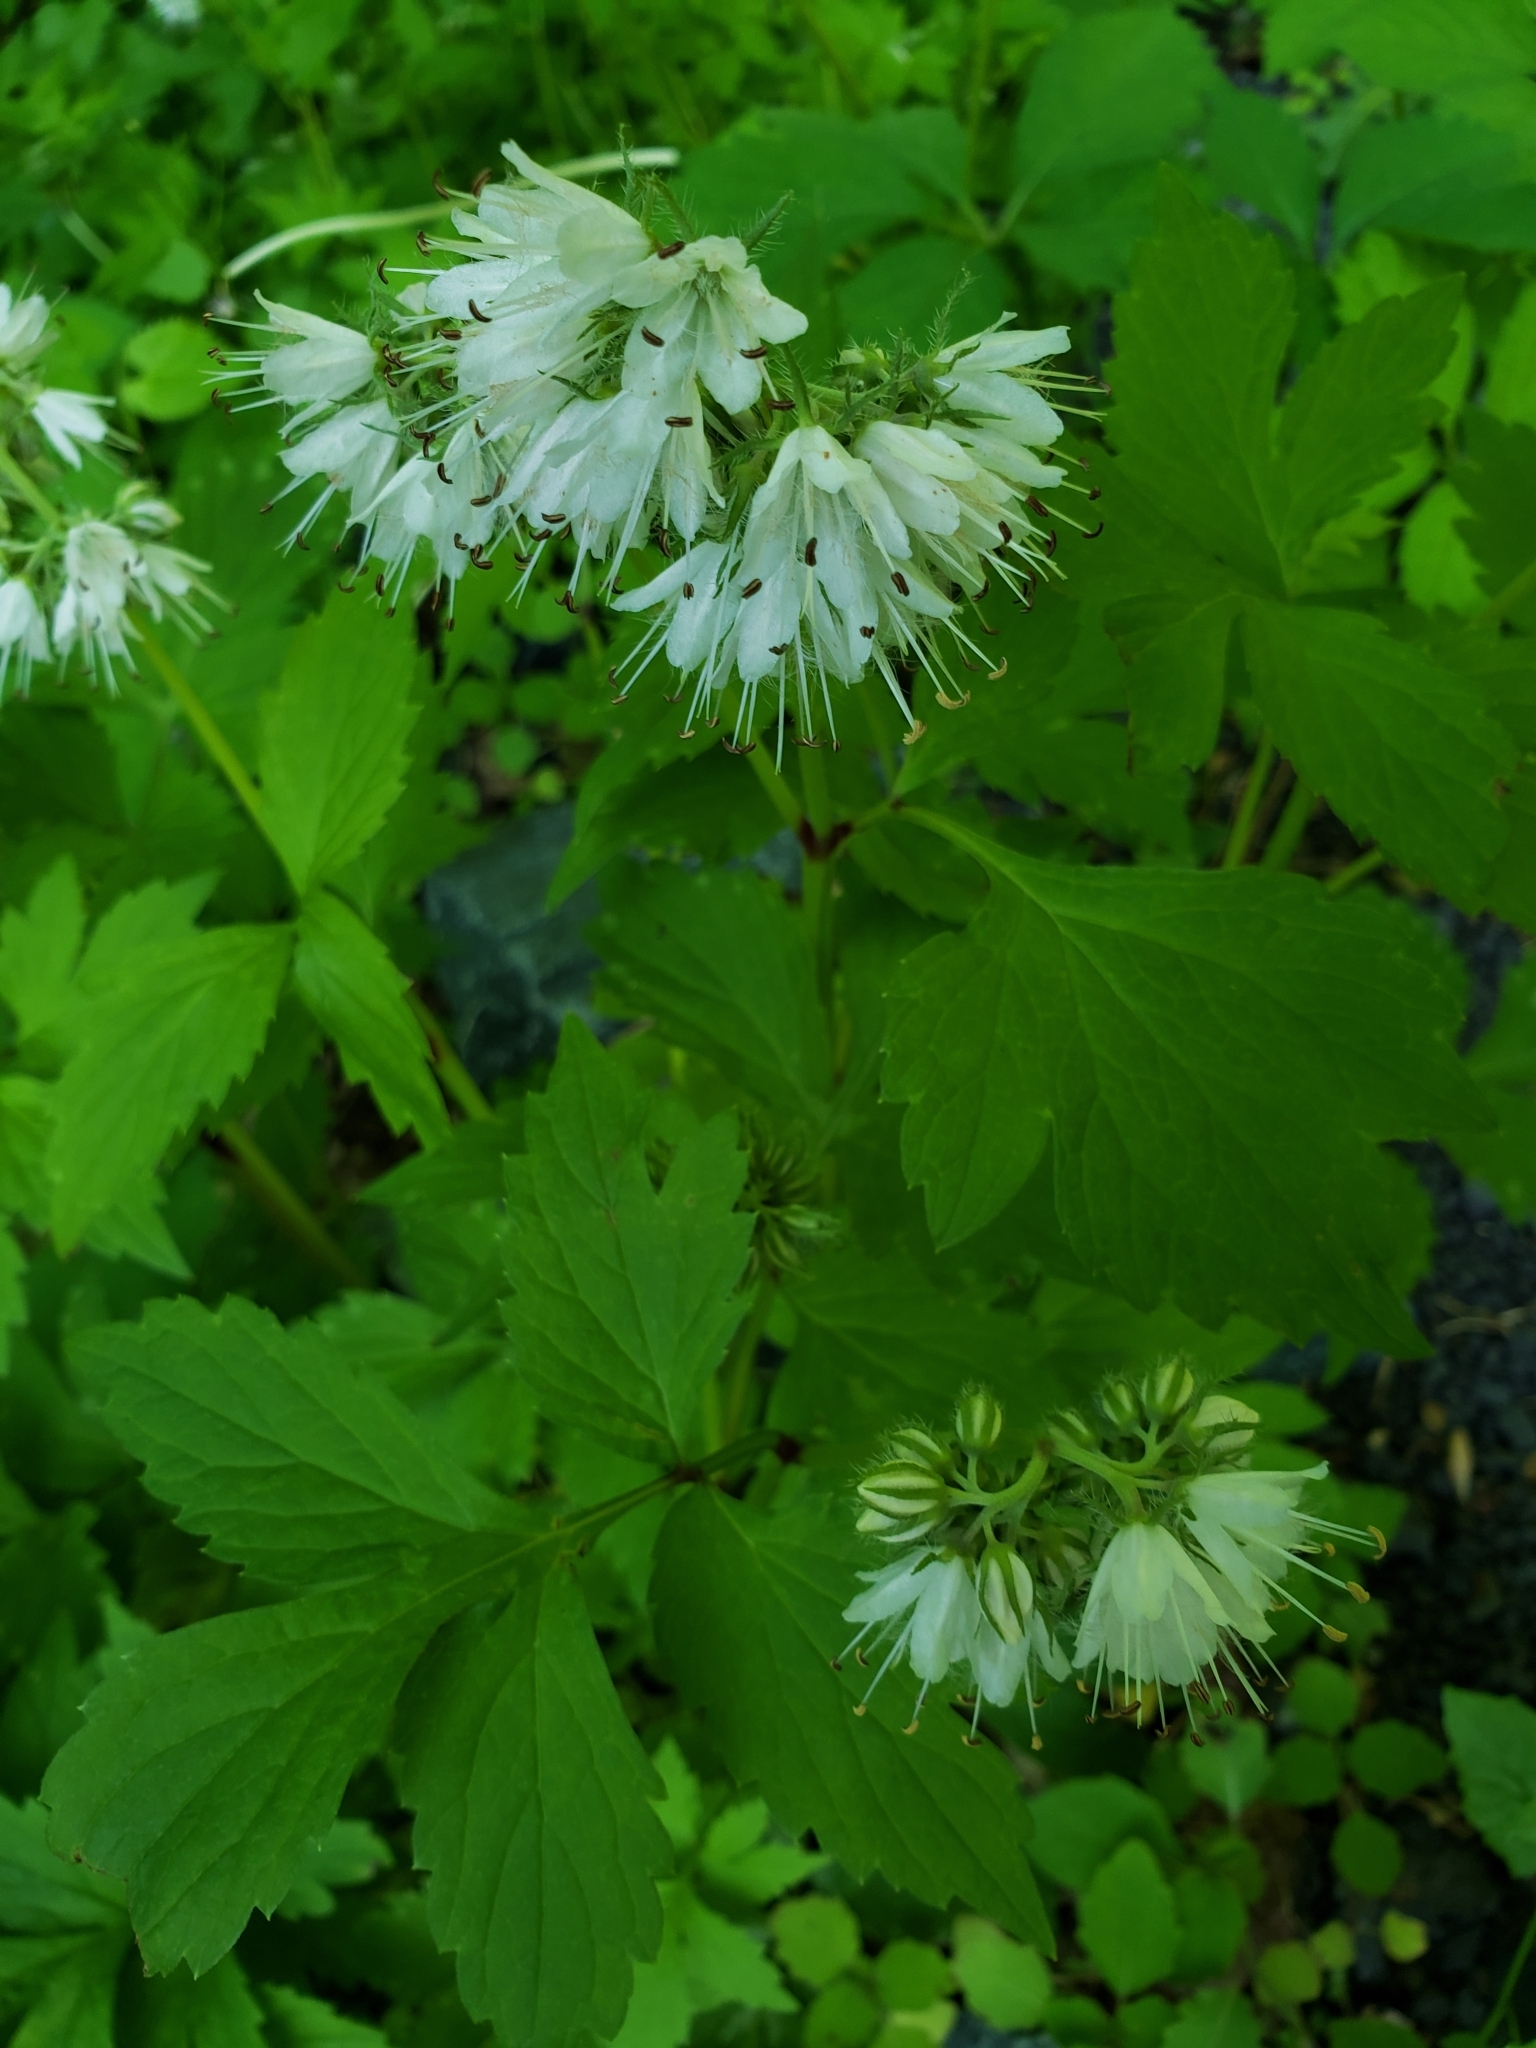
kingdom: Plantae
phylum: Tracheophyta
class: Magnoliopsida
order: Boraginales
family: Hydrophyllaceae
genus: Hydrophyllum
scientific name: Hydrophyllum virginianum
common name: Virginia waterleaf
